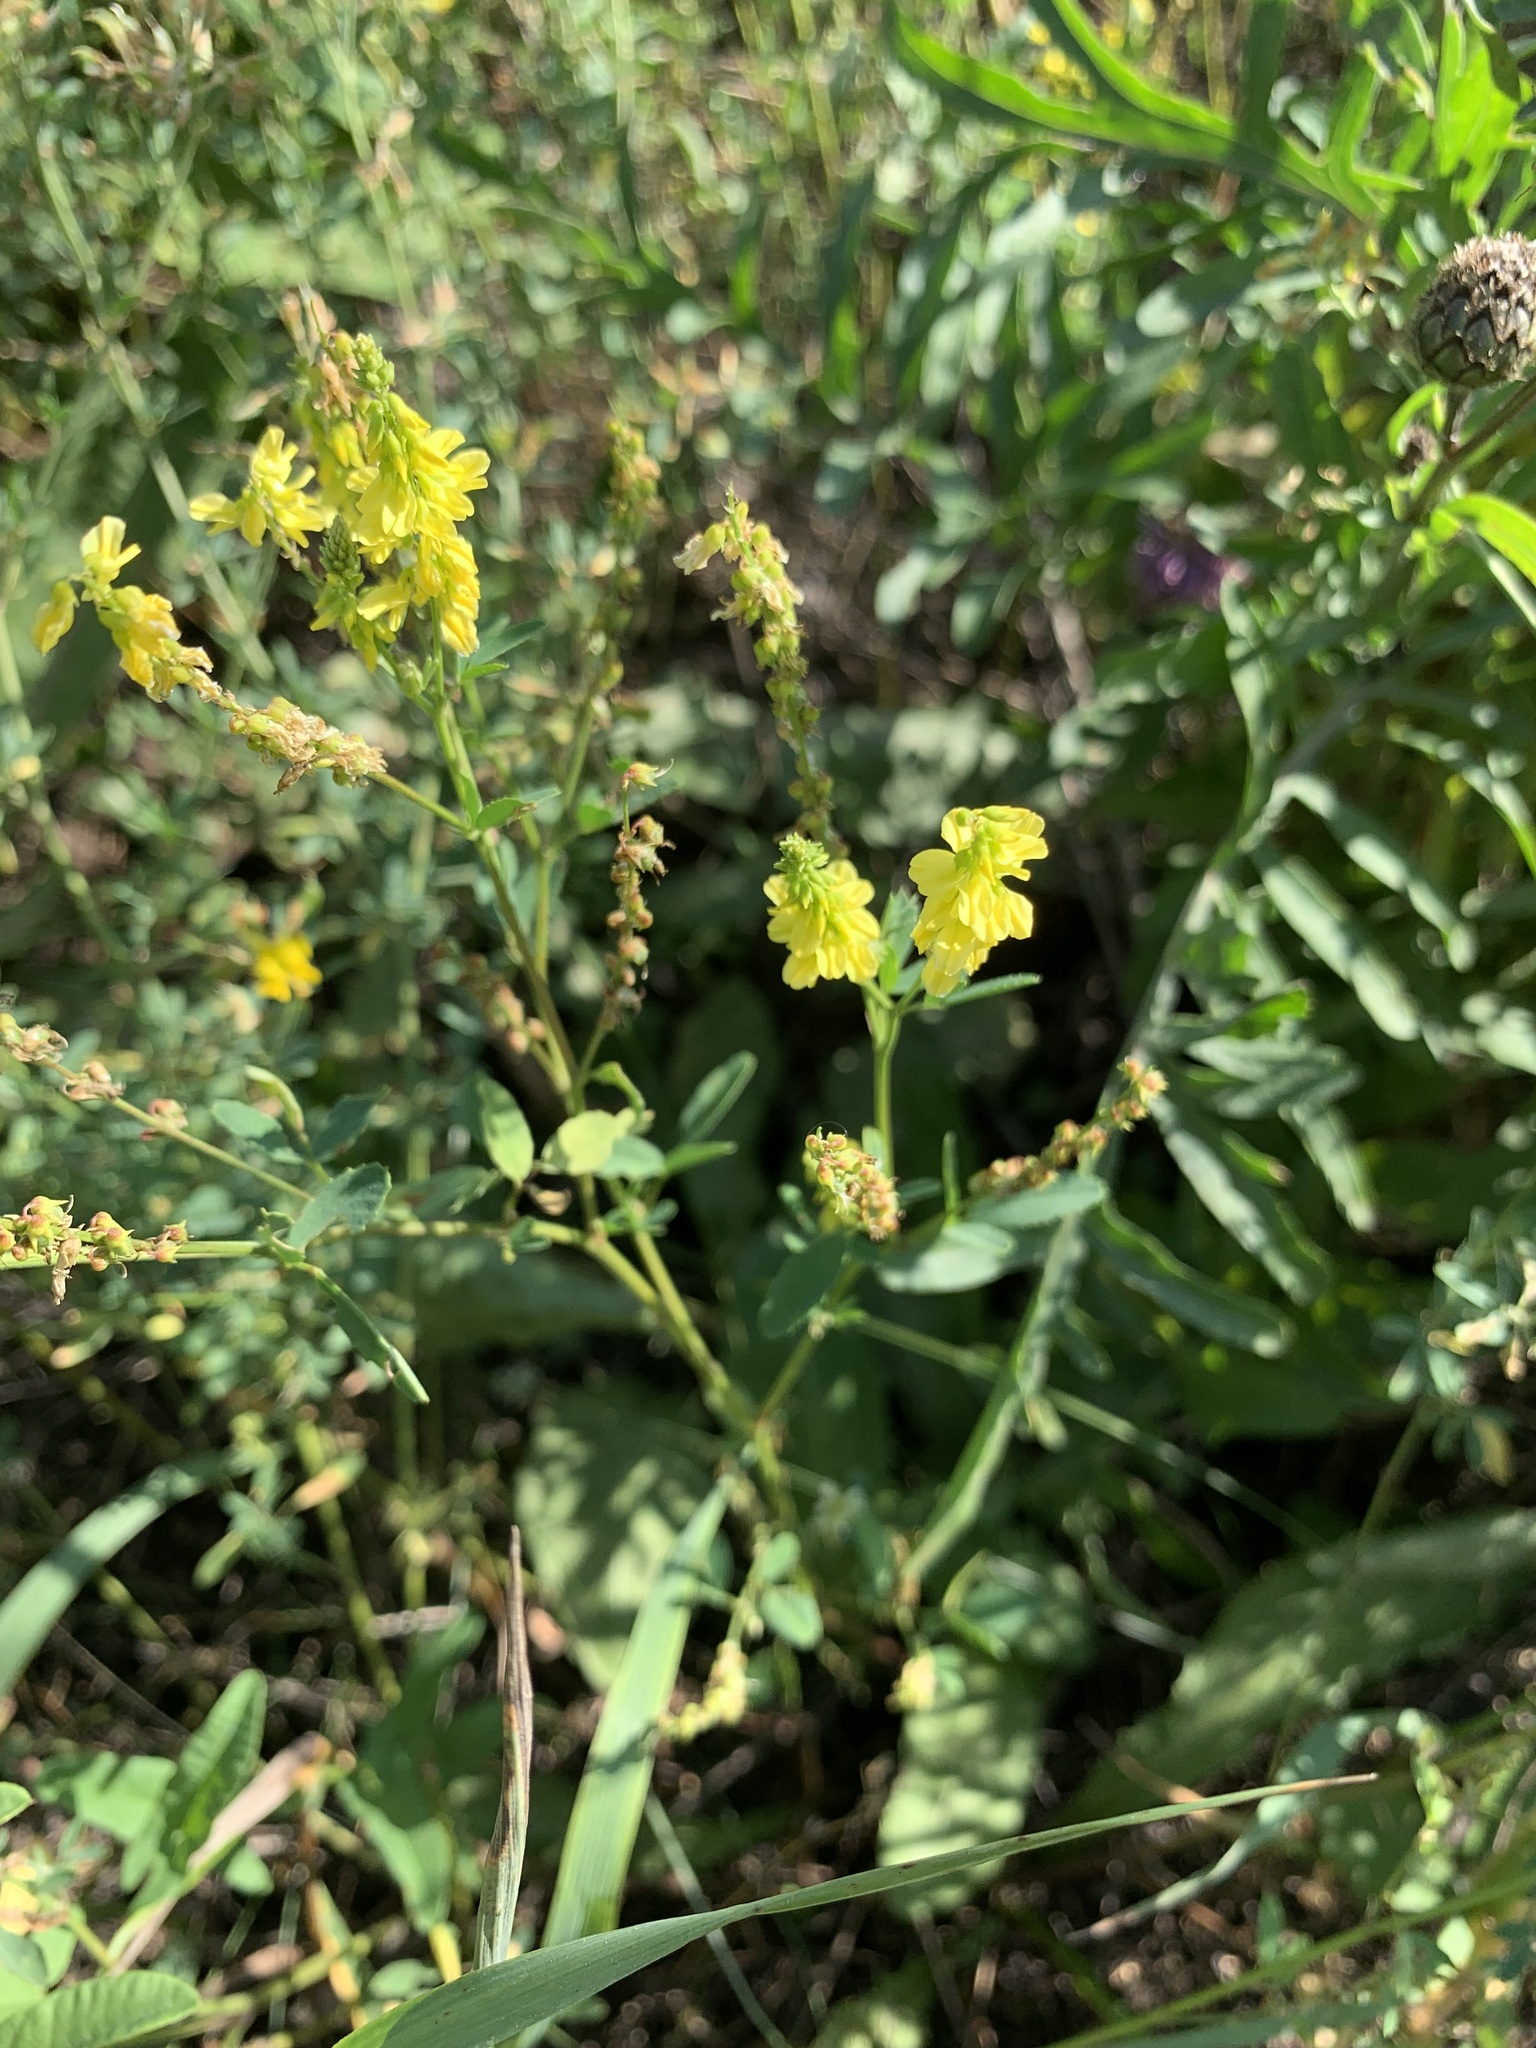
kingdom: Plantae
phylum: Tracheophyta
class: Magnoliopsida
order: Fabales
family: Fabaceae
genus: Melilotus
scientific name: Melilotus officinalis
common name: Sweetclover
